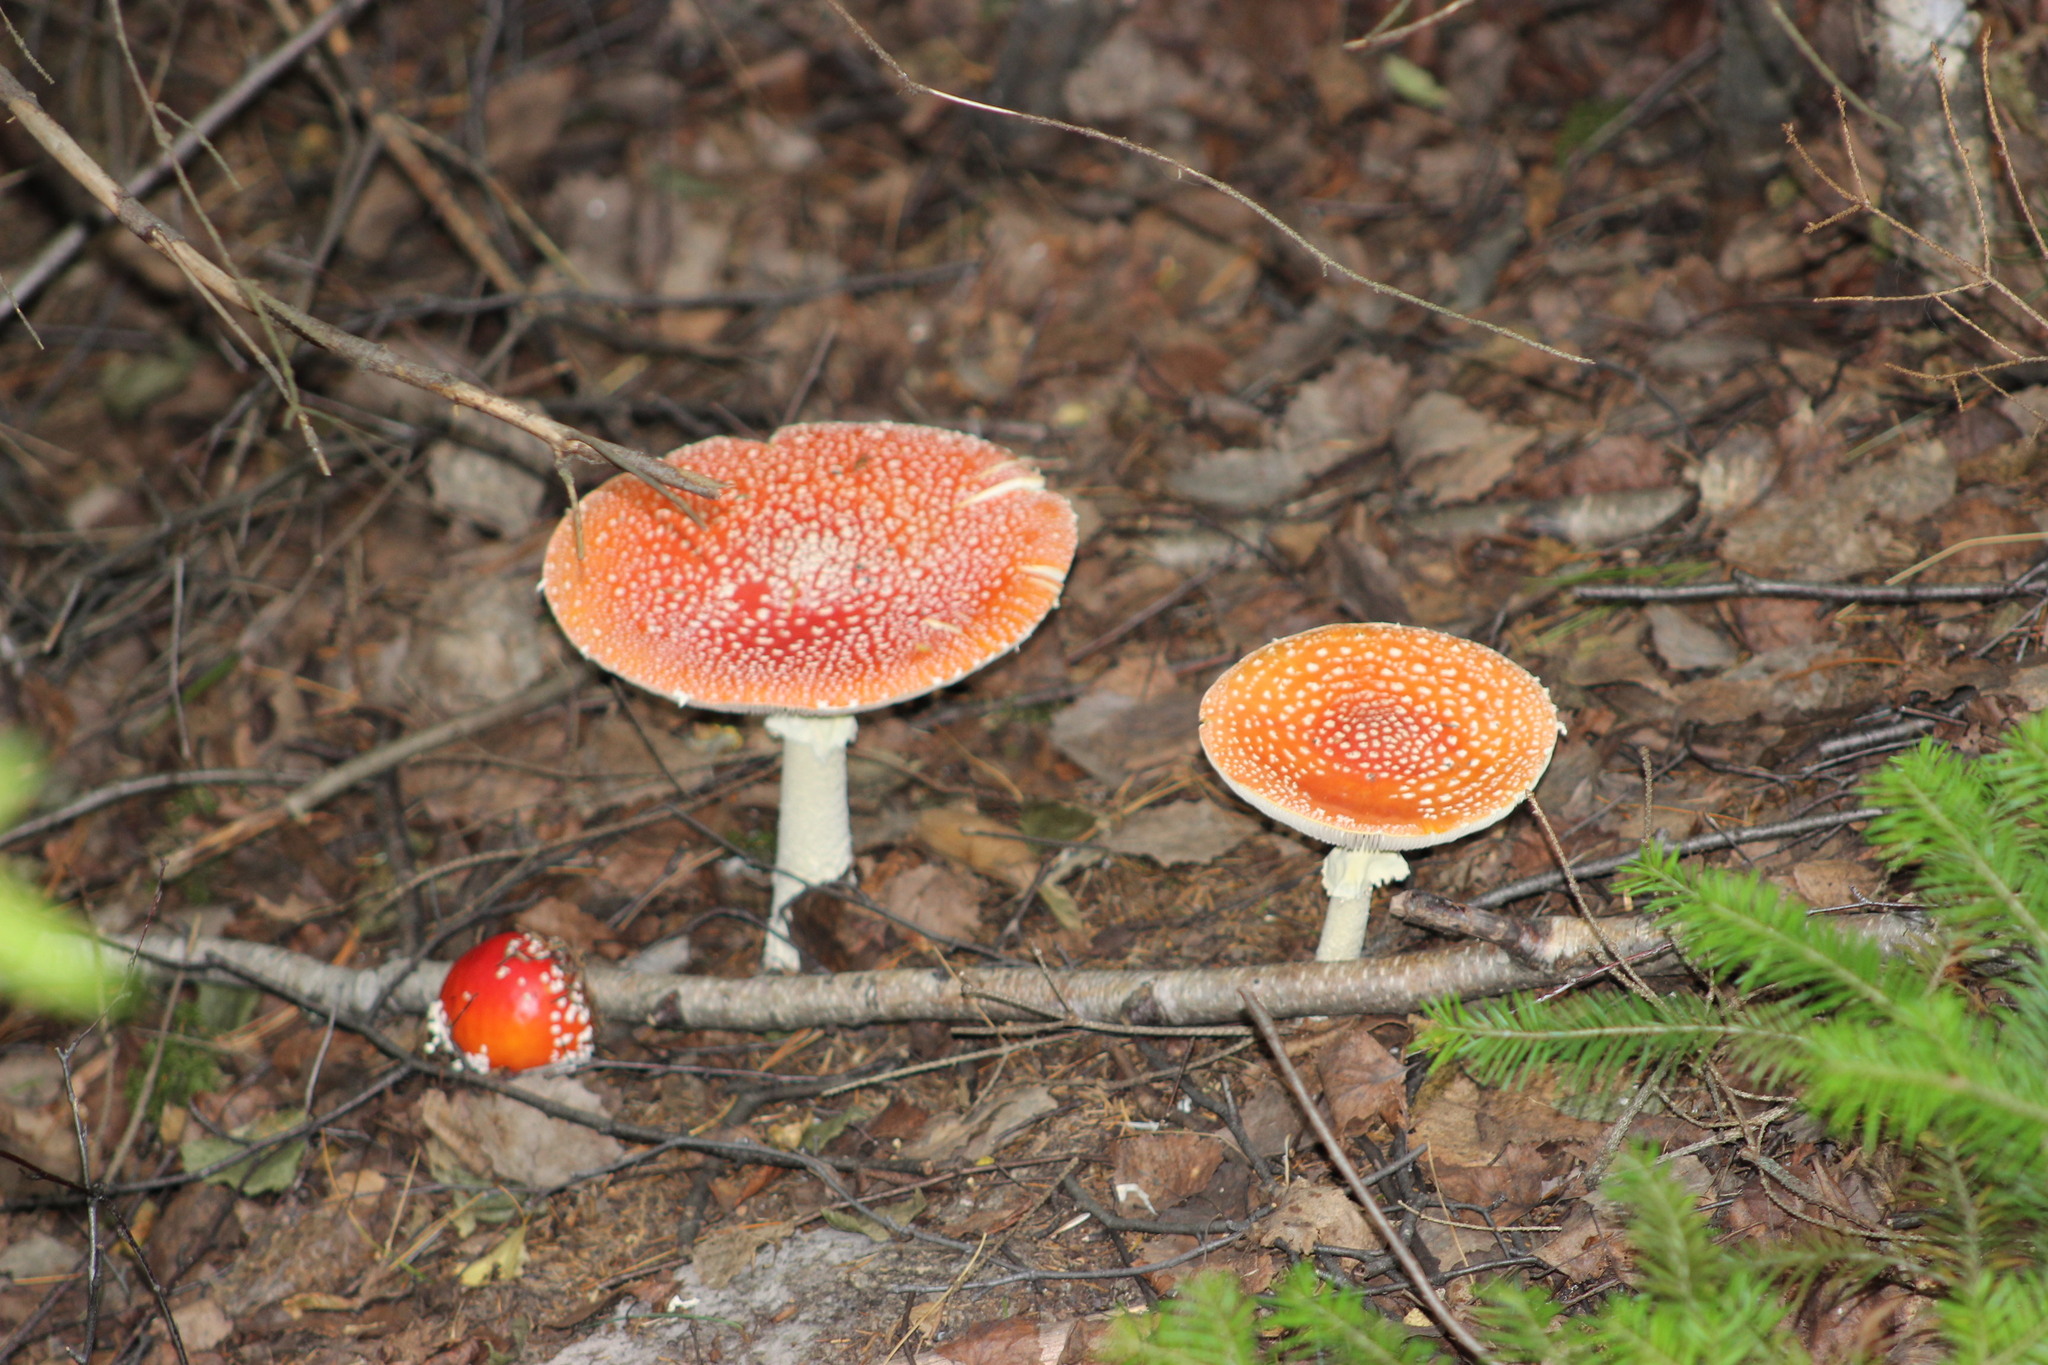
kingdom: Fungi
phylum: Basidiomycota
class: Agaricomycetes
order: Agaricales
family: Amanitaceae
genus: Amanita
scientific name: Amanita muscaria
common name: Fly agaric
